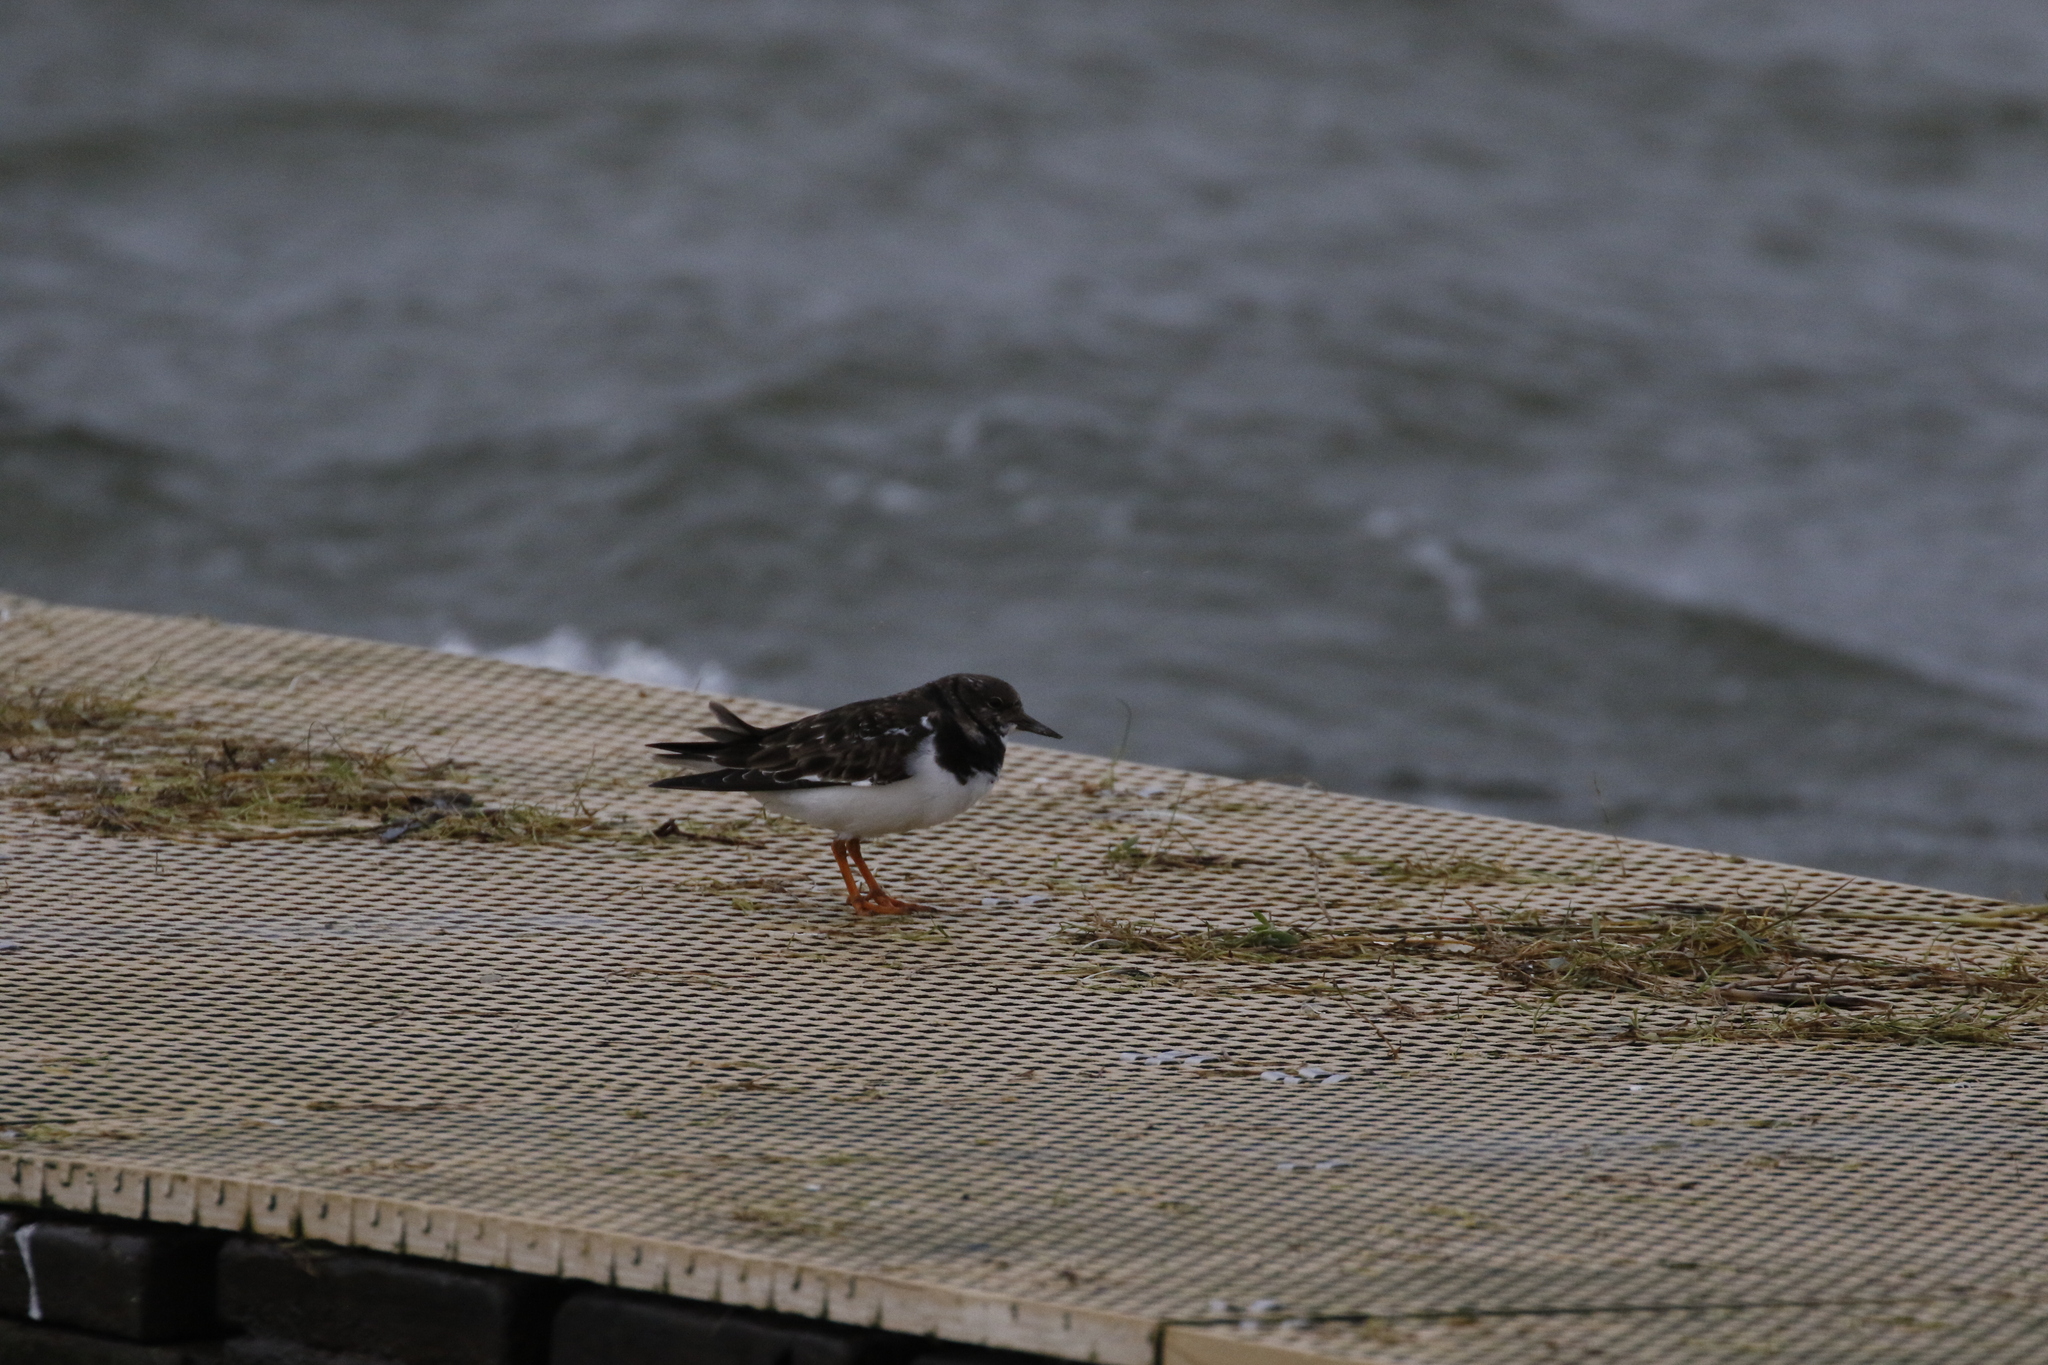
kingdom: Animalia
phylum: Chordata
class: Aves
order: Charadriiformes
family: Scolopacidae
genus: Arenaria
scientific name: Arenaria interpres
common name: Ruddy turnstone
